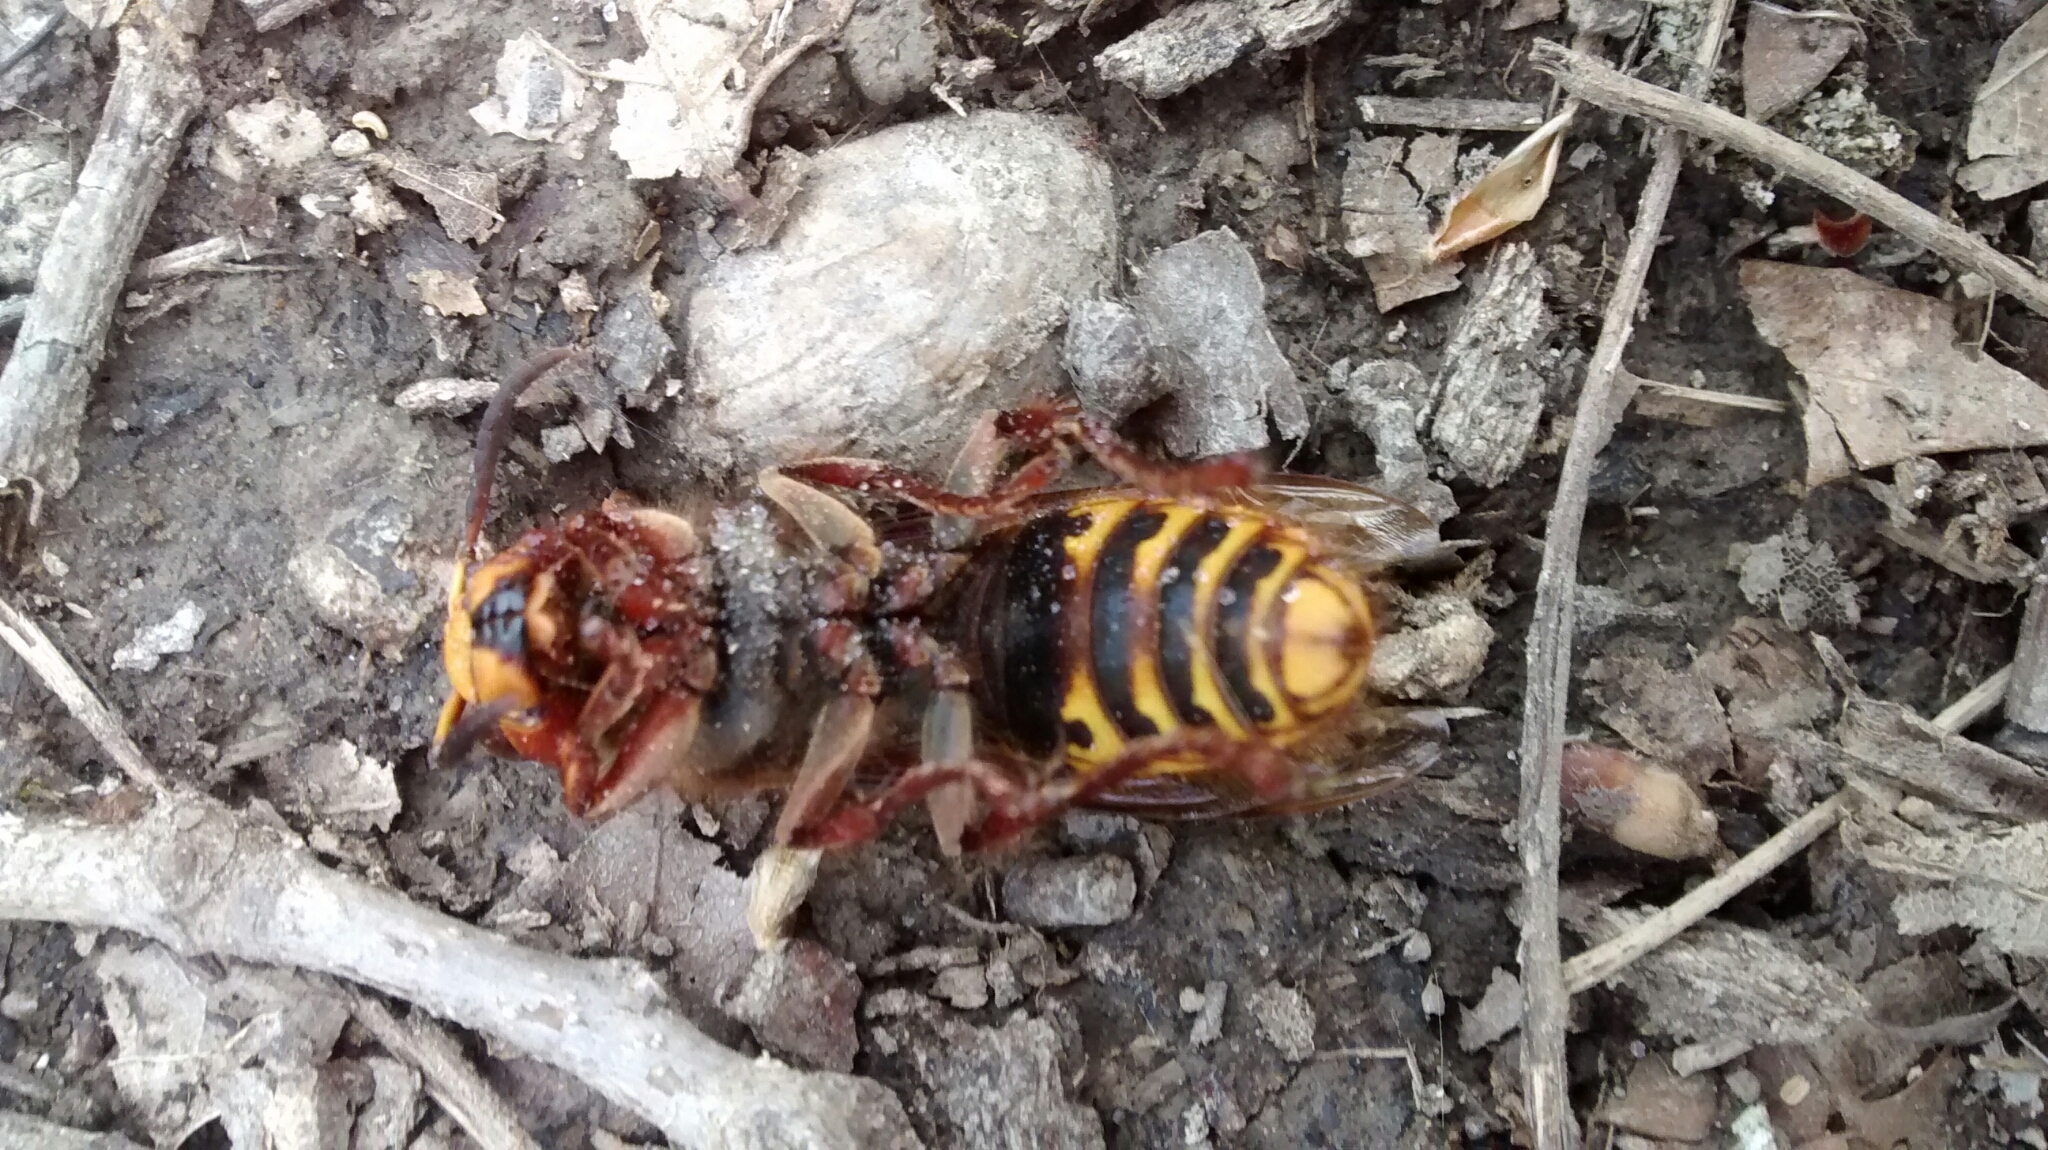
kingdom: Animalia
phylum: Arthropoda
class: Insecta
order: Hymenoptera
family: Vespidae
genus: Vespa
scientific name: Vespa crabro
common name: Hornet
